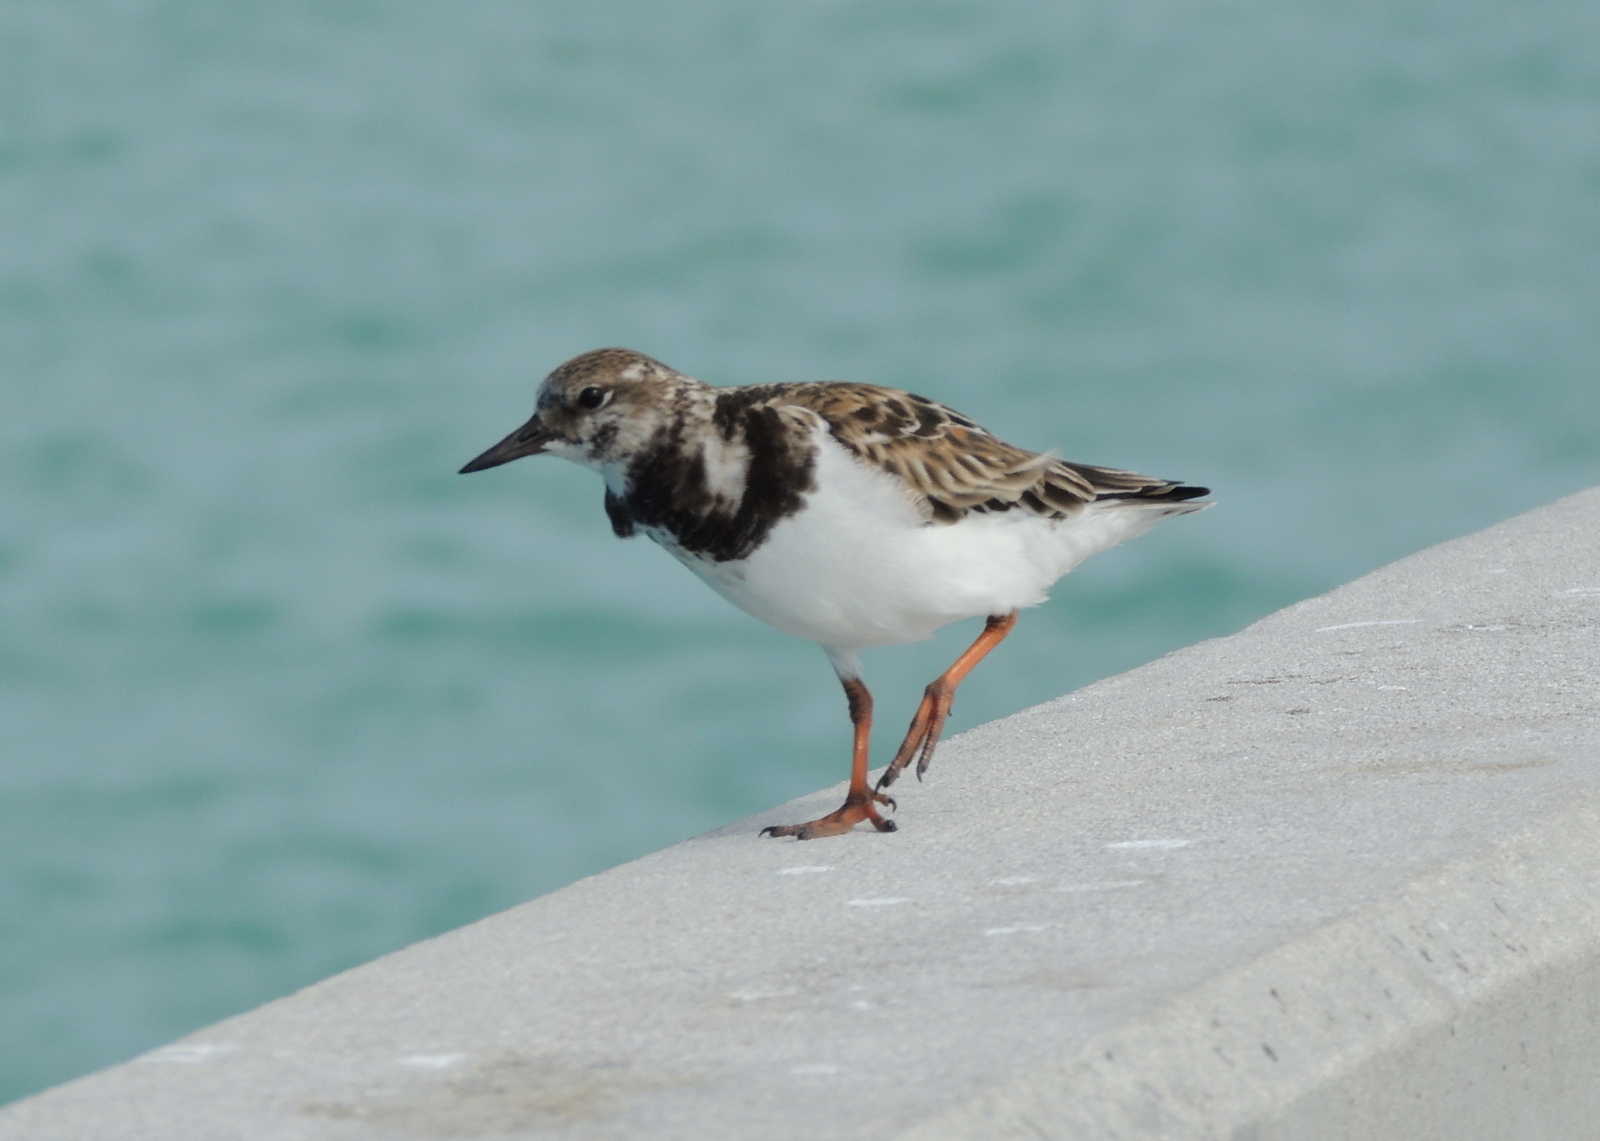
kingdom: Animalia
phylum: Chordata
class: Aves
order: Charadriiformes
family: Scolopacidae
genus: Arenaria
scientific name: Arenaria interpres
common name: Ruddy turnstone
